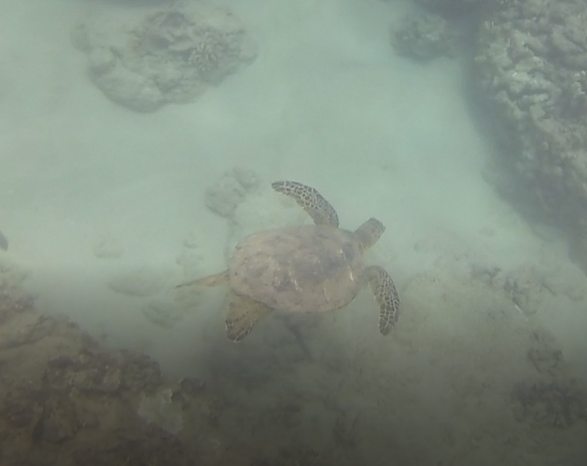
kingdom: Animalia
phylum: Chordata
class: Testudines
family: Cheloniidae
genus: Chelonia
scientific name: Chelonia mydas
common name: Green turtle
